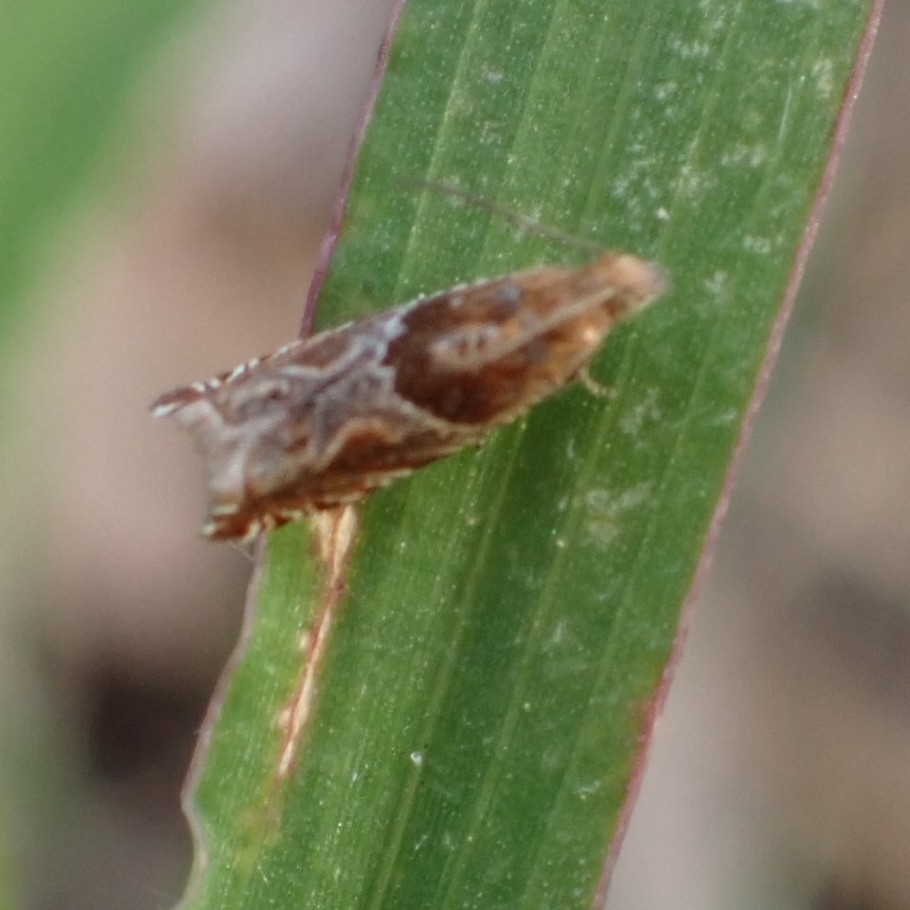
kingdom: Animalia
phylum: Arthropoda
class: Insecta
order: Lepidoptera
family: Tortricidae
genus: Ancylis
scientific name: Ancylis obtusana
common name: Small buckthorn roller
